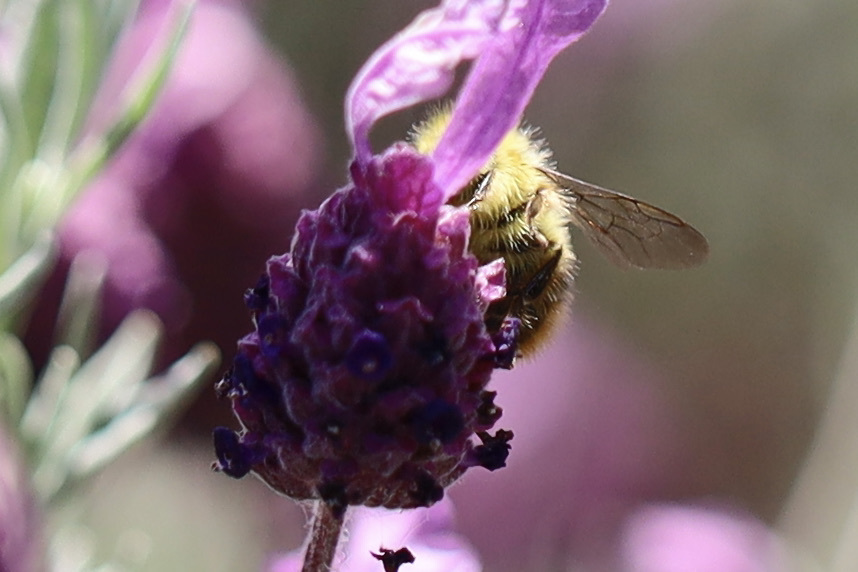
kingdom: Animalia
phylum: Arthropoda
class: Insecta
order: Hymenoptera
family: Apidae
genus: Bombus
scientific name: Bombus mixtus
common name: Fuzzy-horned bumble bee
